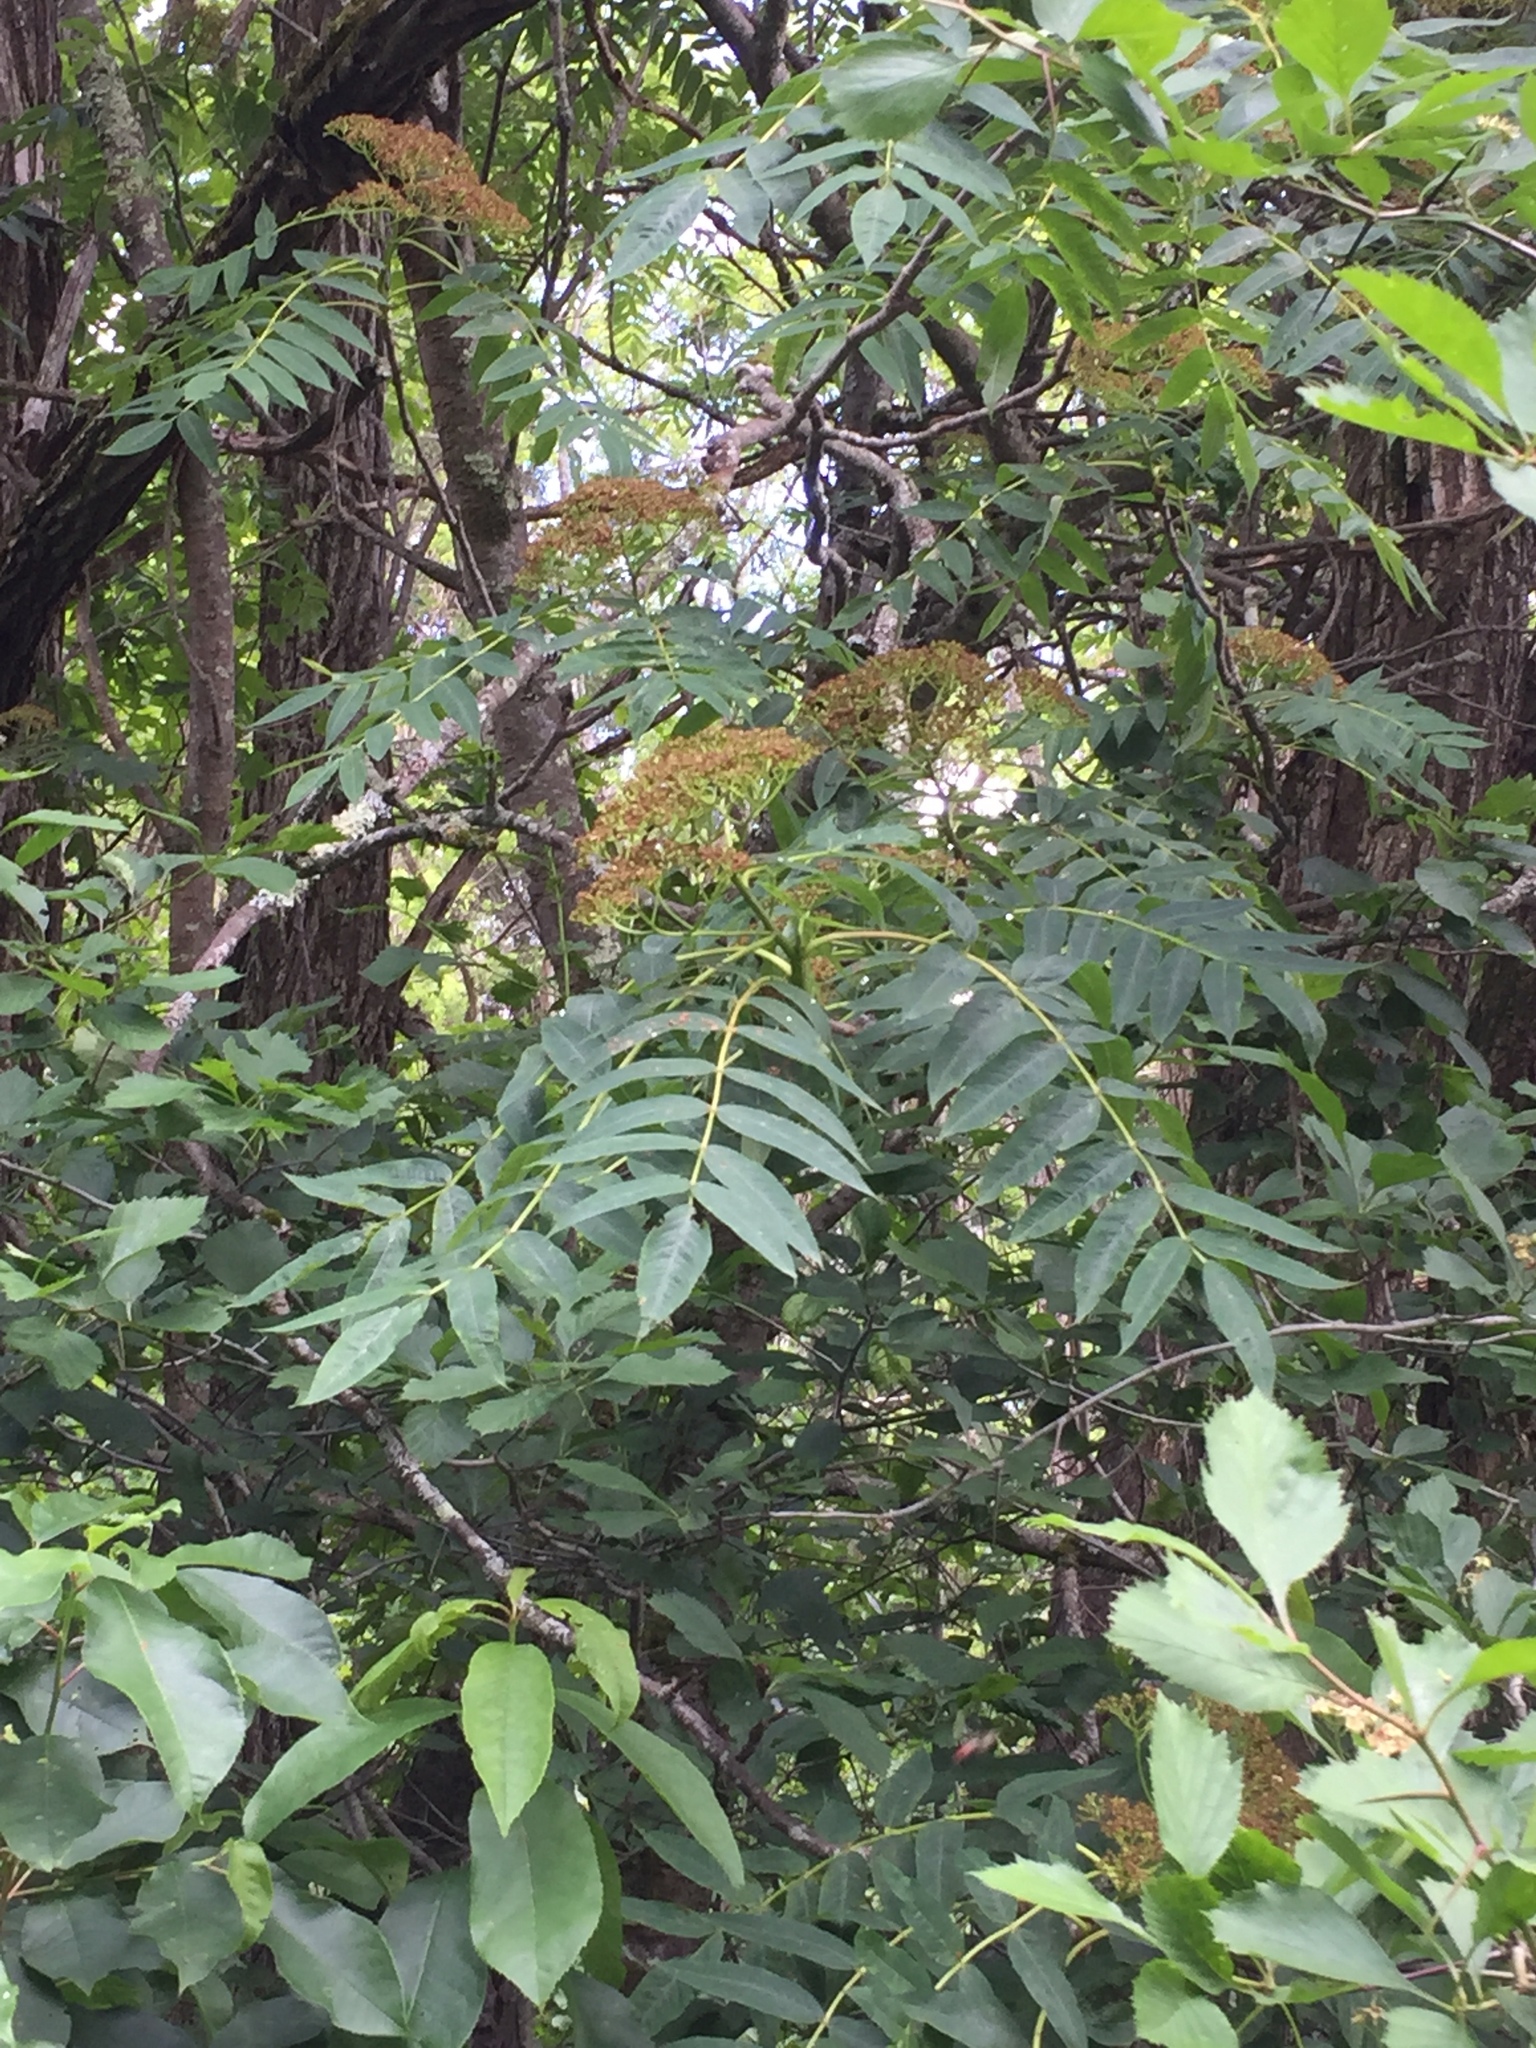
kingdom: Plantae
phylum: Tracheophyta
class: Magnoliopsida
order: Rosales
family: Rosaceae
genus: Sorbus
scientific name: Sorbus americana
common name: American mountain-ash
